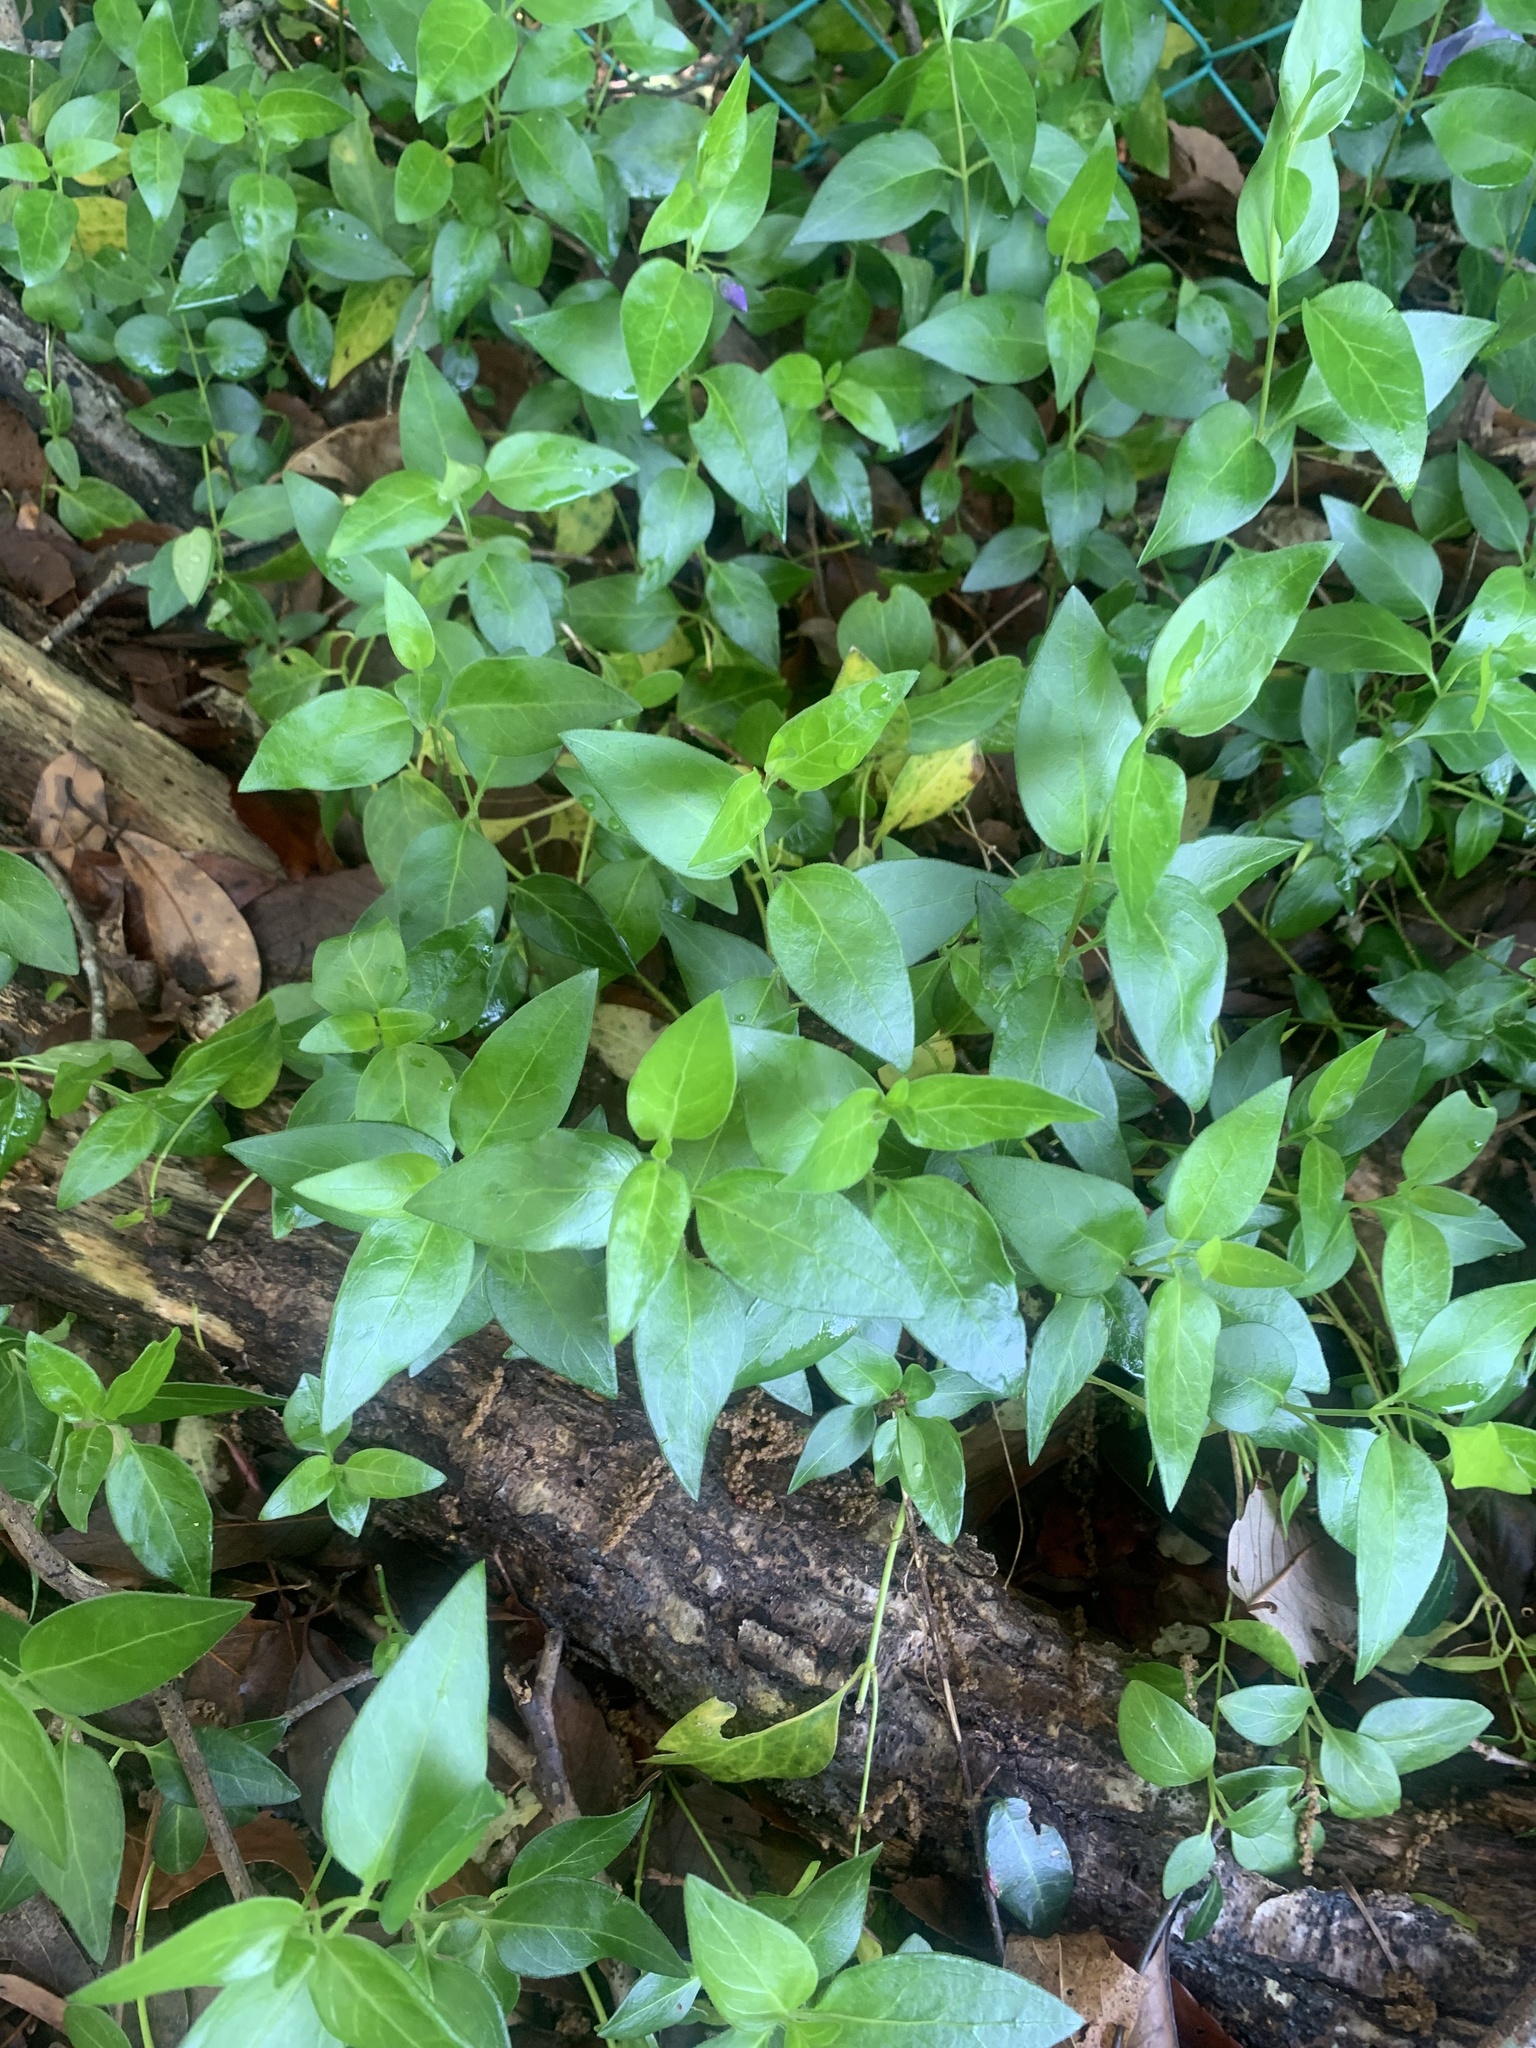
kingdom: Plantae
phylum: Tracheophyta
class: Magnoliopsida
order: Gentianales
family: Apocynaceae
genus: Vinca
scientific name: Vinca major
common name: Greater periwinkle
